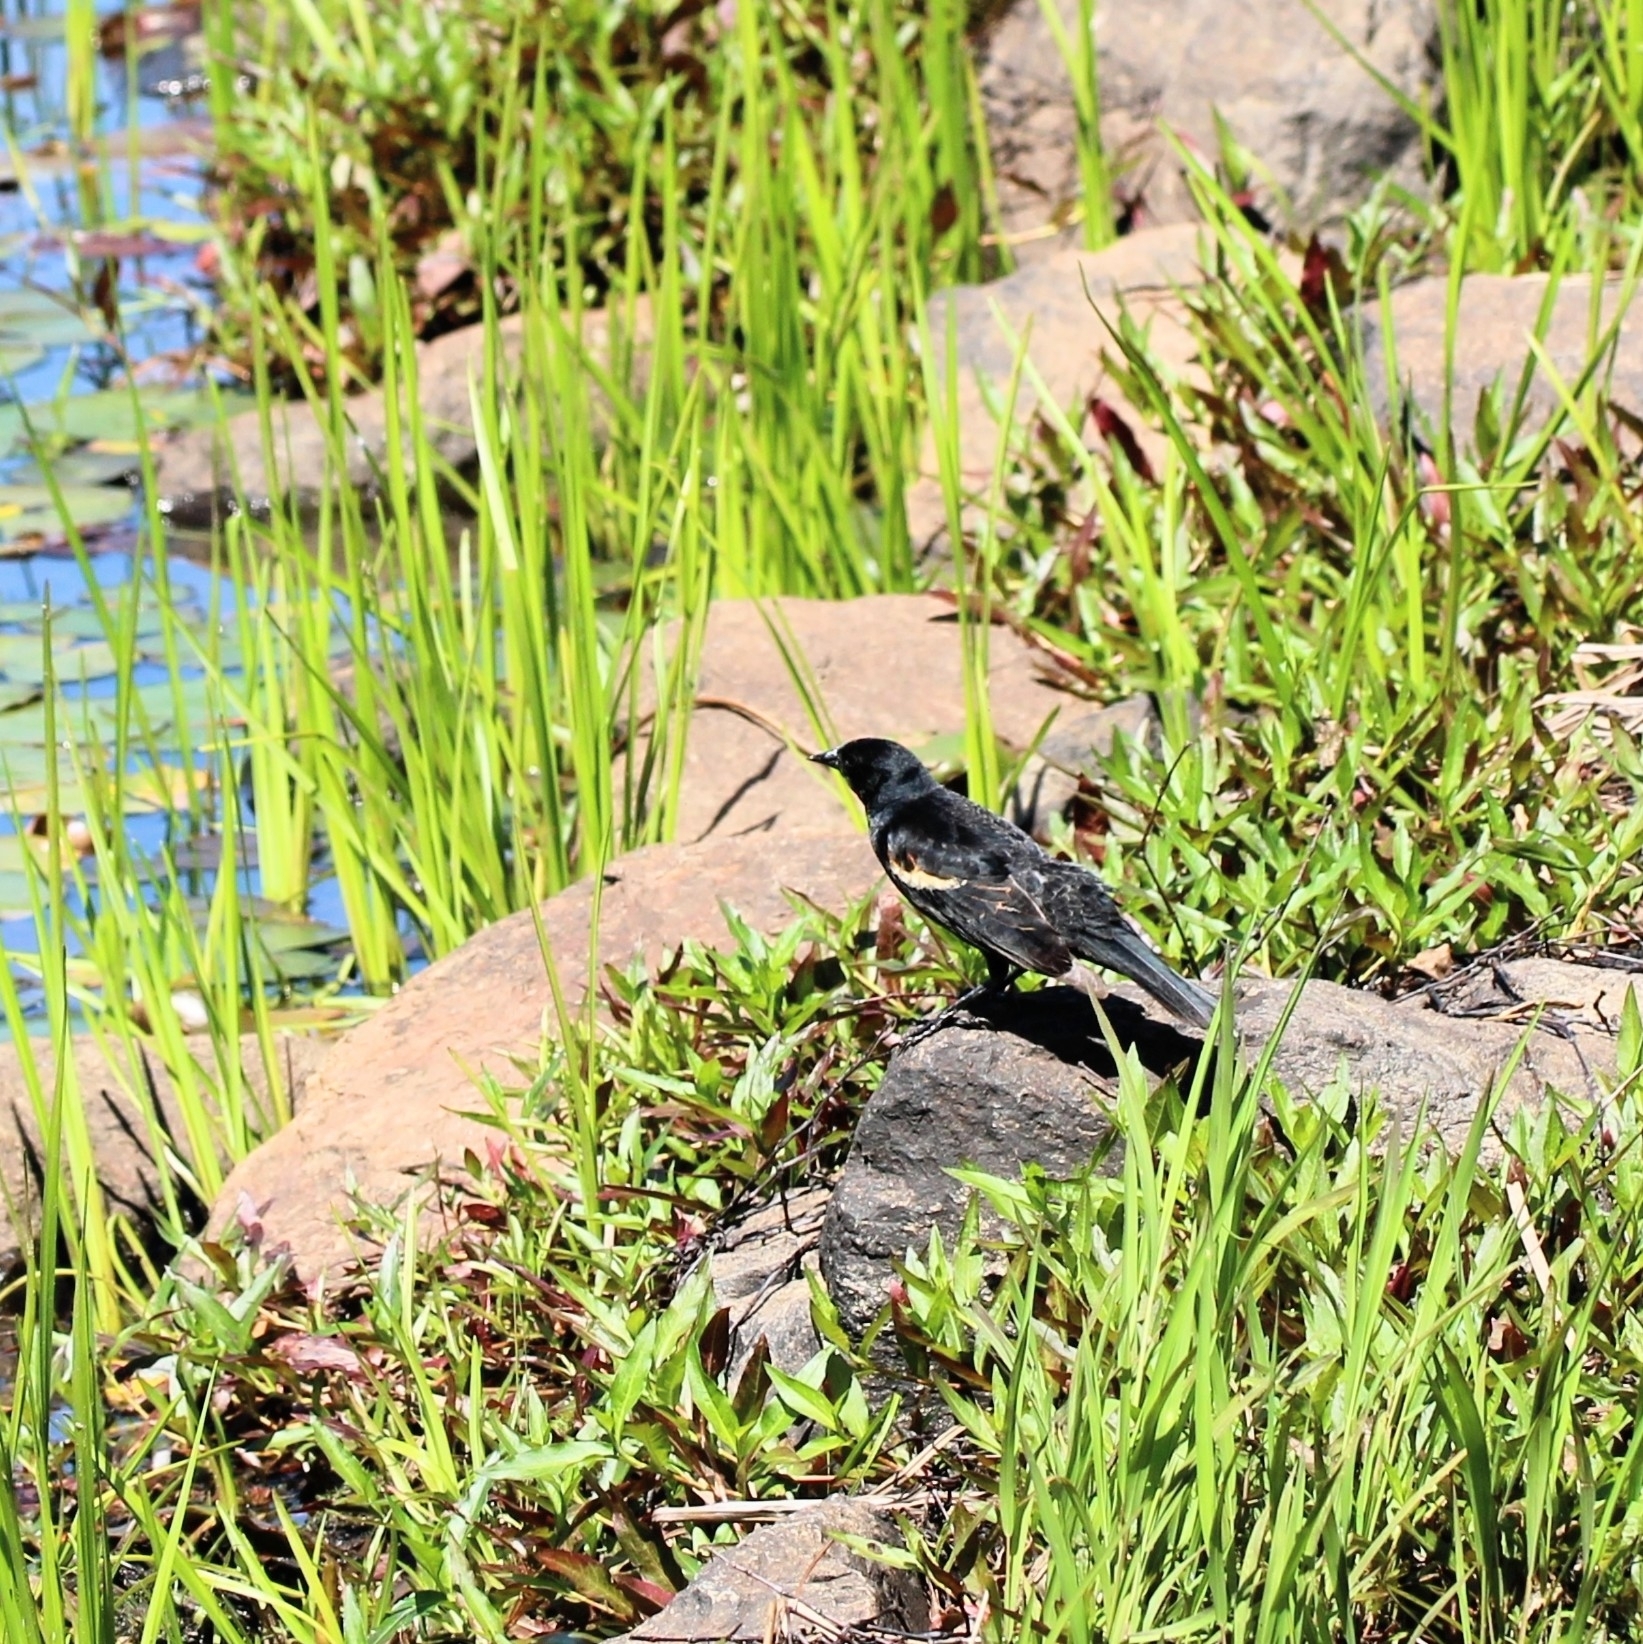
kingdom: Animalia
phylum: Chordata
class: Aves
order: Passeriformes
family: Icteridae
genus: Agelaius
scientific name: Agelaius phoeniceus
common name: Red-winged blackbird
